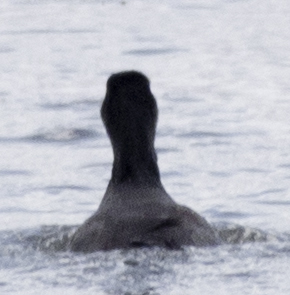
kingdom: Animalia
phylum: Chordata
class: Aves
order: Gruiformes
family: Rallidae
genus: Fulica
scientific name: Fulica americana
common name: American coot
